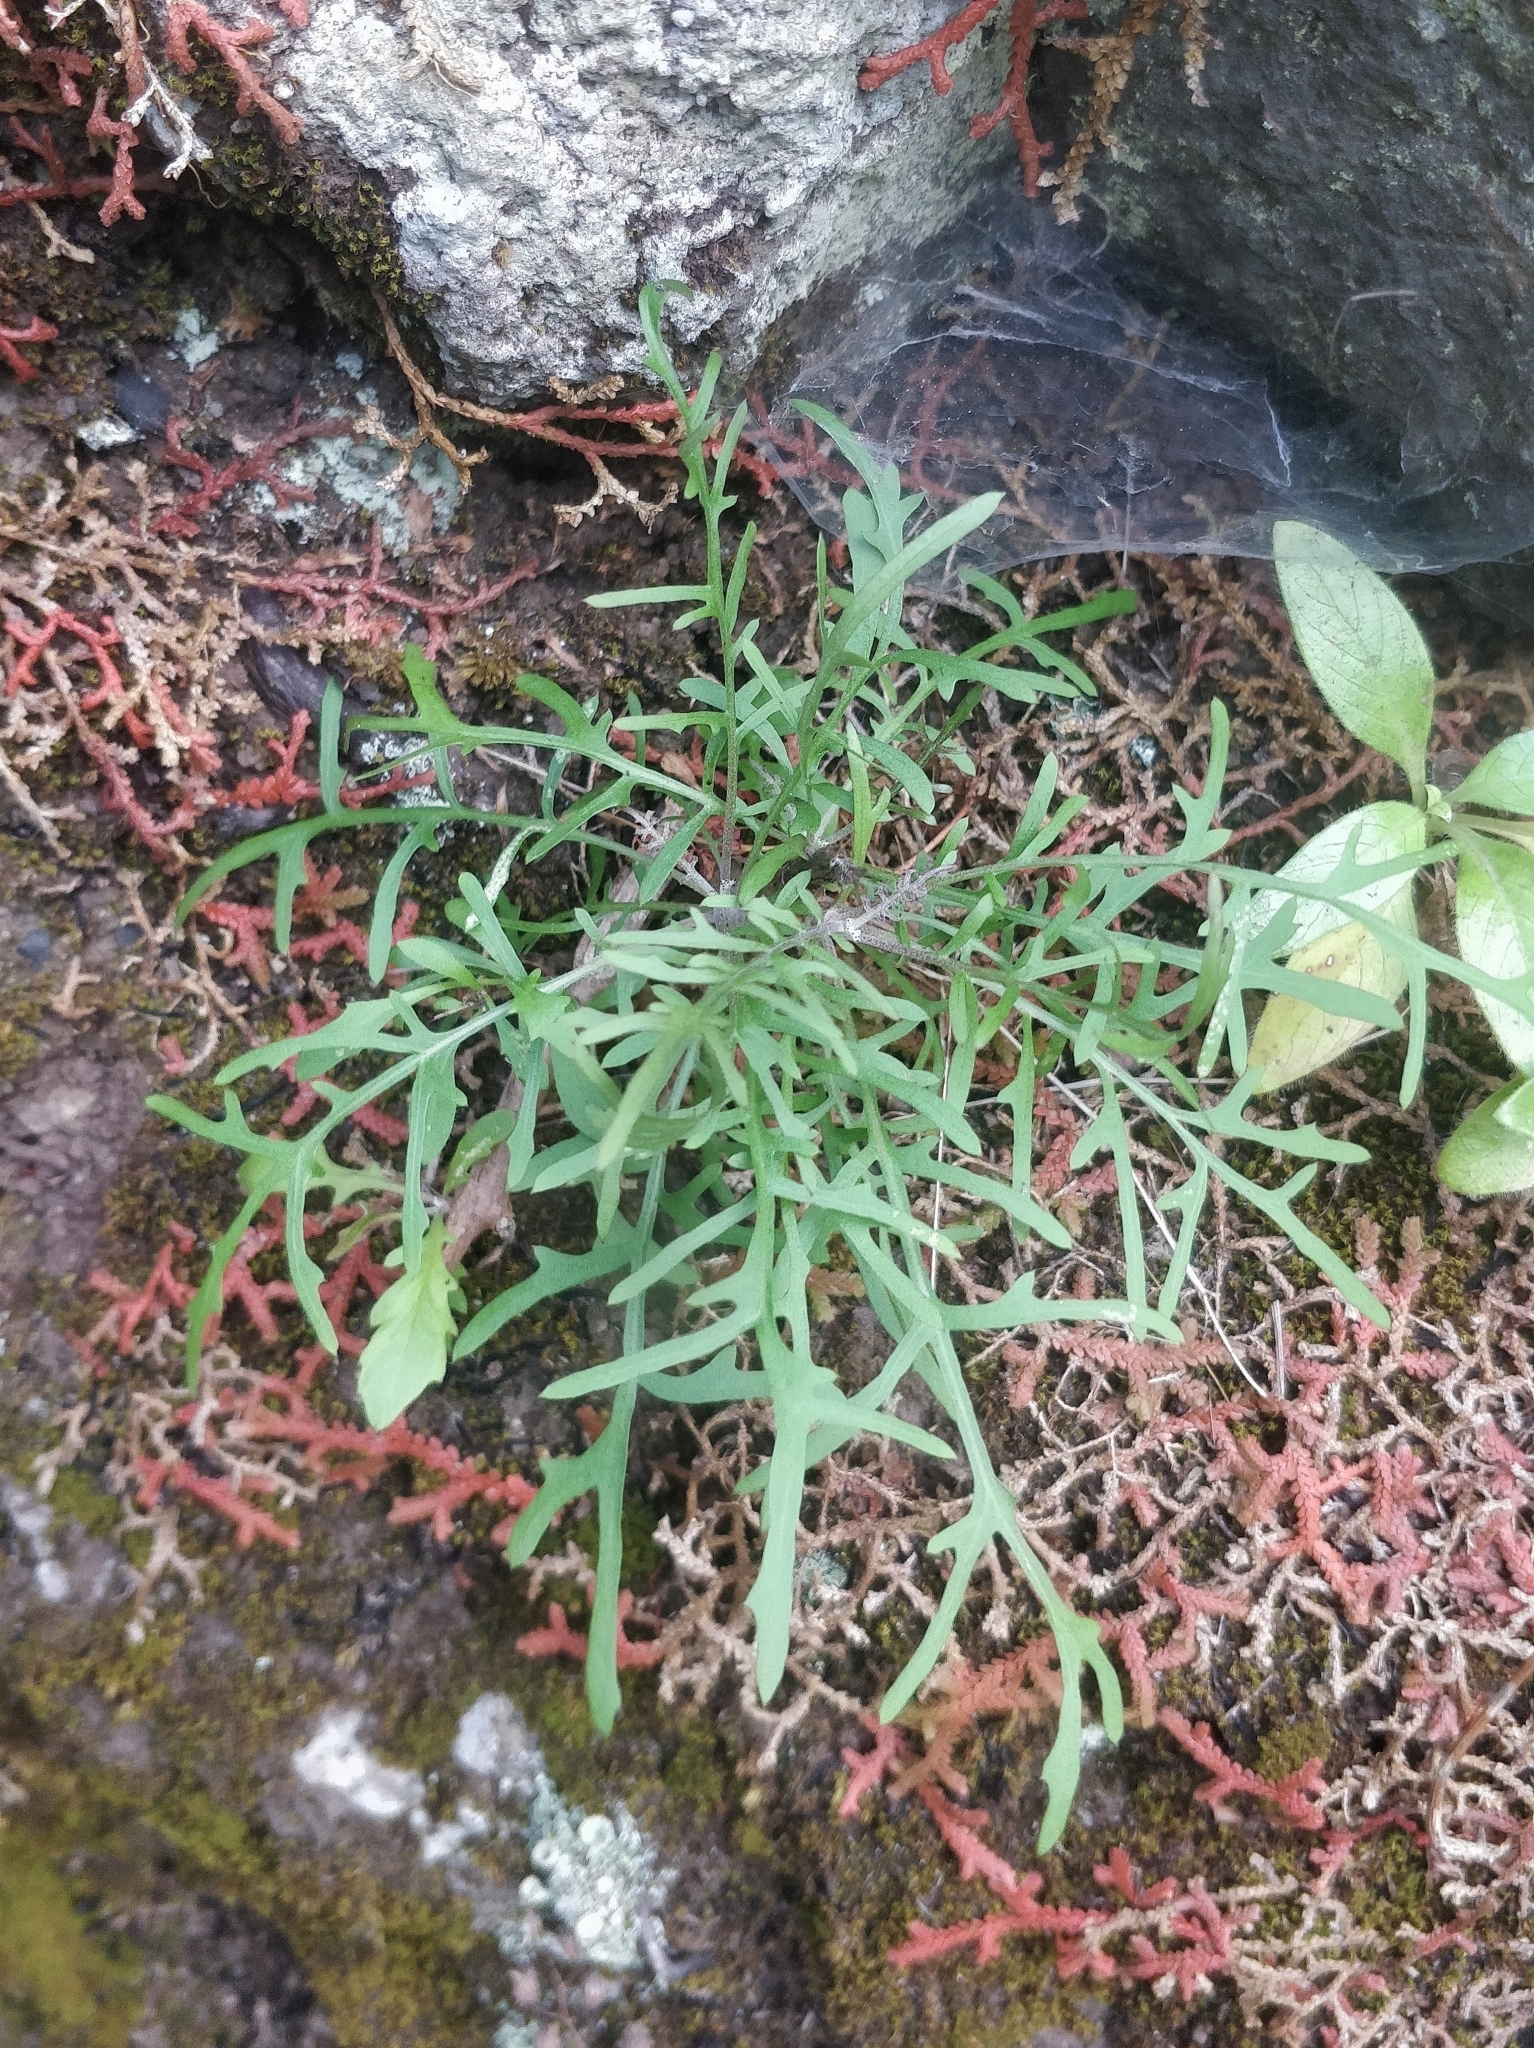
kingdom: Plantae
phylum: Tracheophyta
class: Magnoliopsida
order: Asterales
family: Asteraceae
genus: Tolpis
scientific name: Tolpis succulenta
